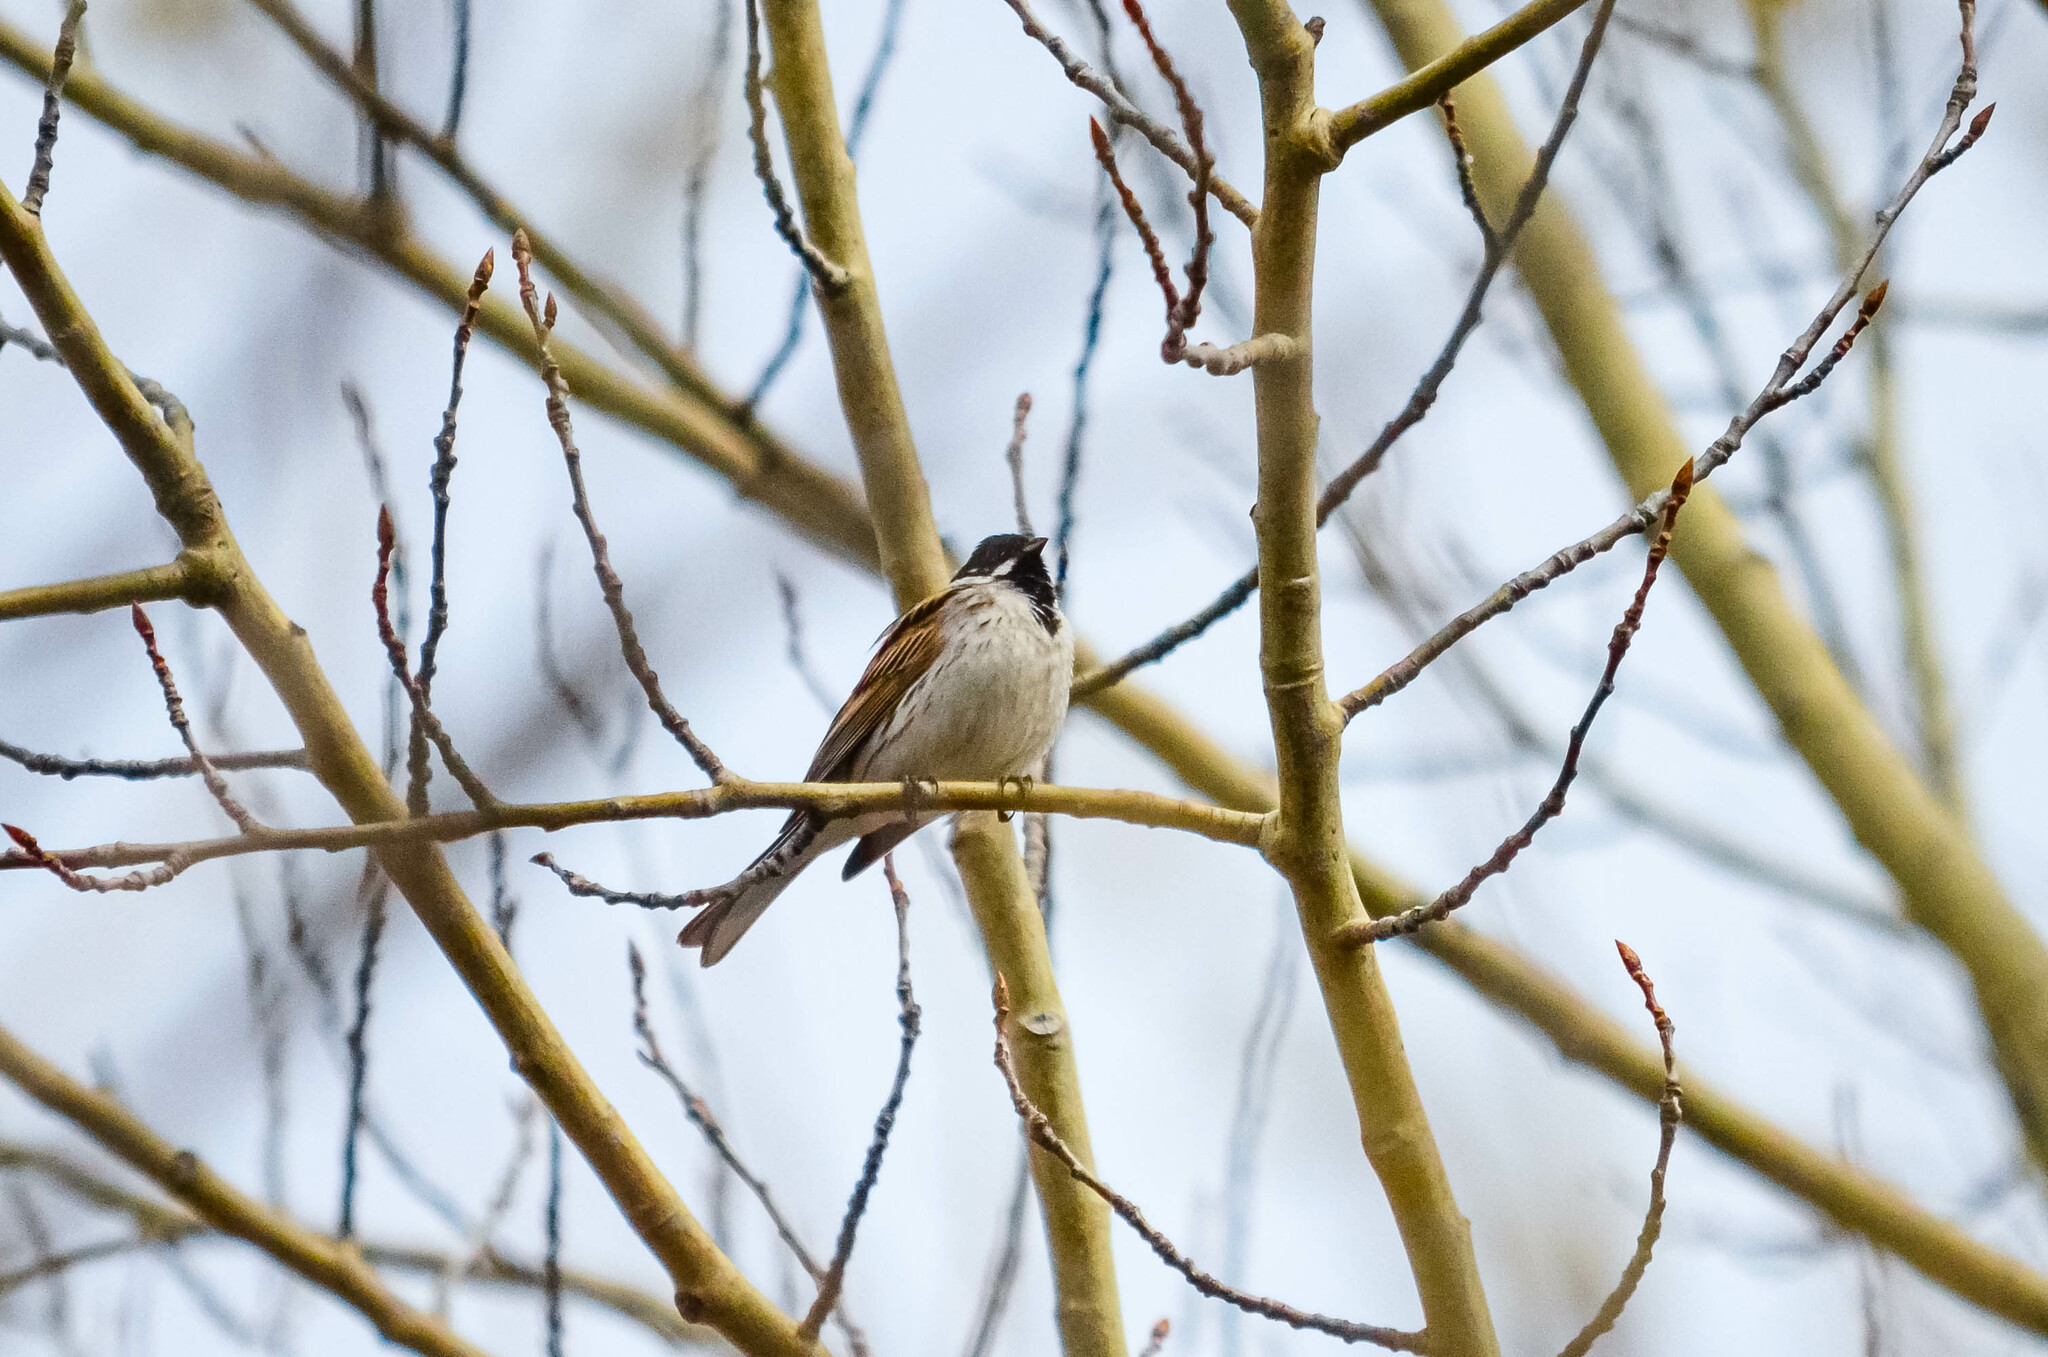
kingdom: Animalia
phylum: Chordata
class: Aves
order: Passeriformes
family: Emberizidae
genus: Emberiza
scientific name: Emberiza schoeniclus
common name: Reed bunting
